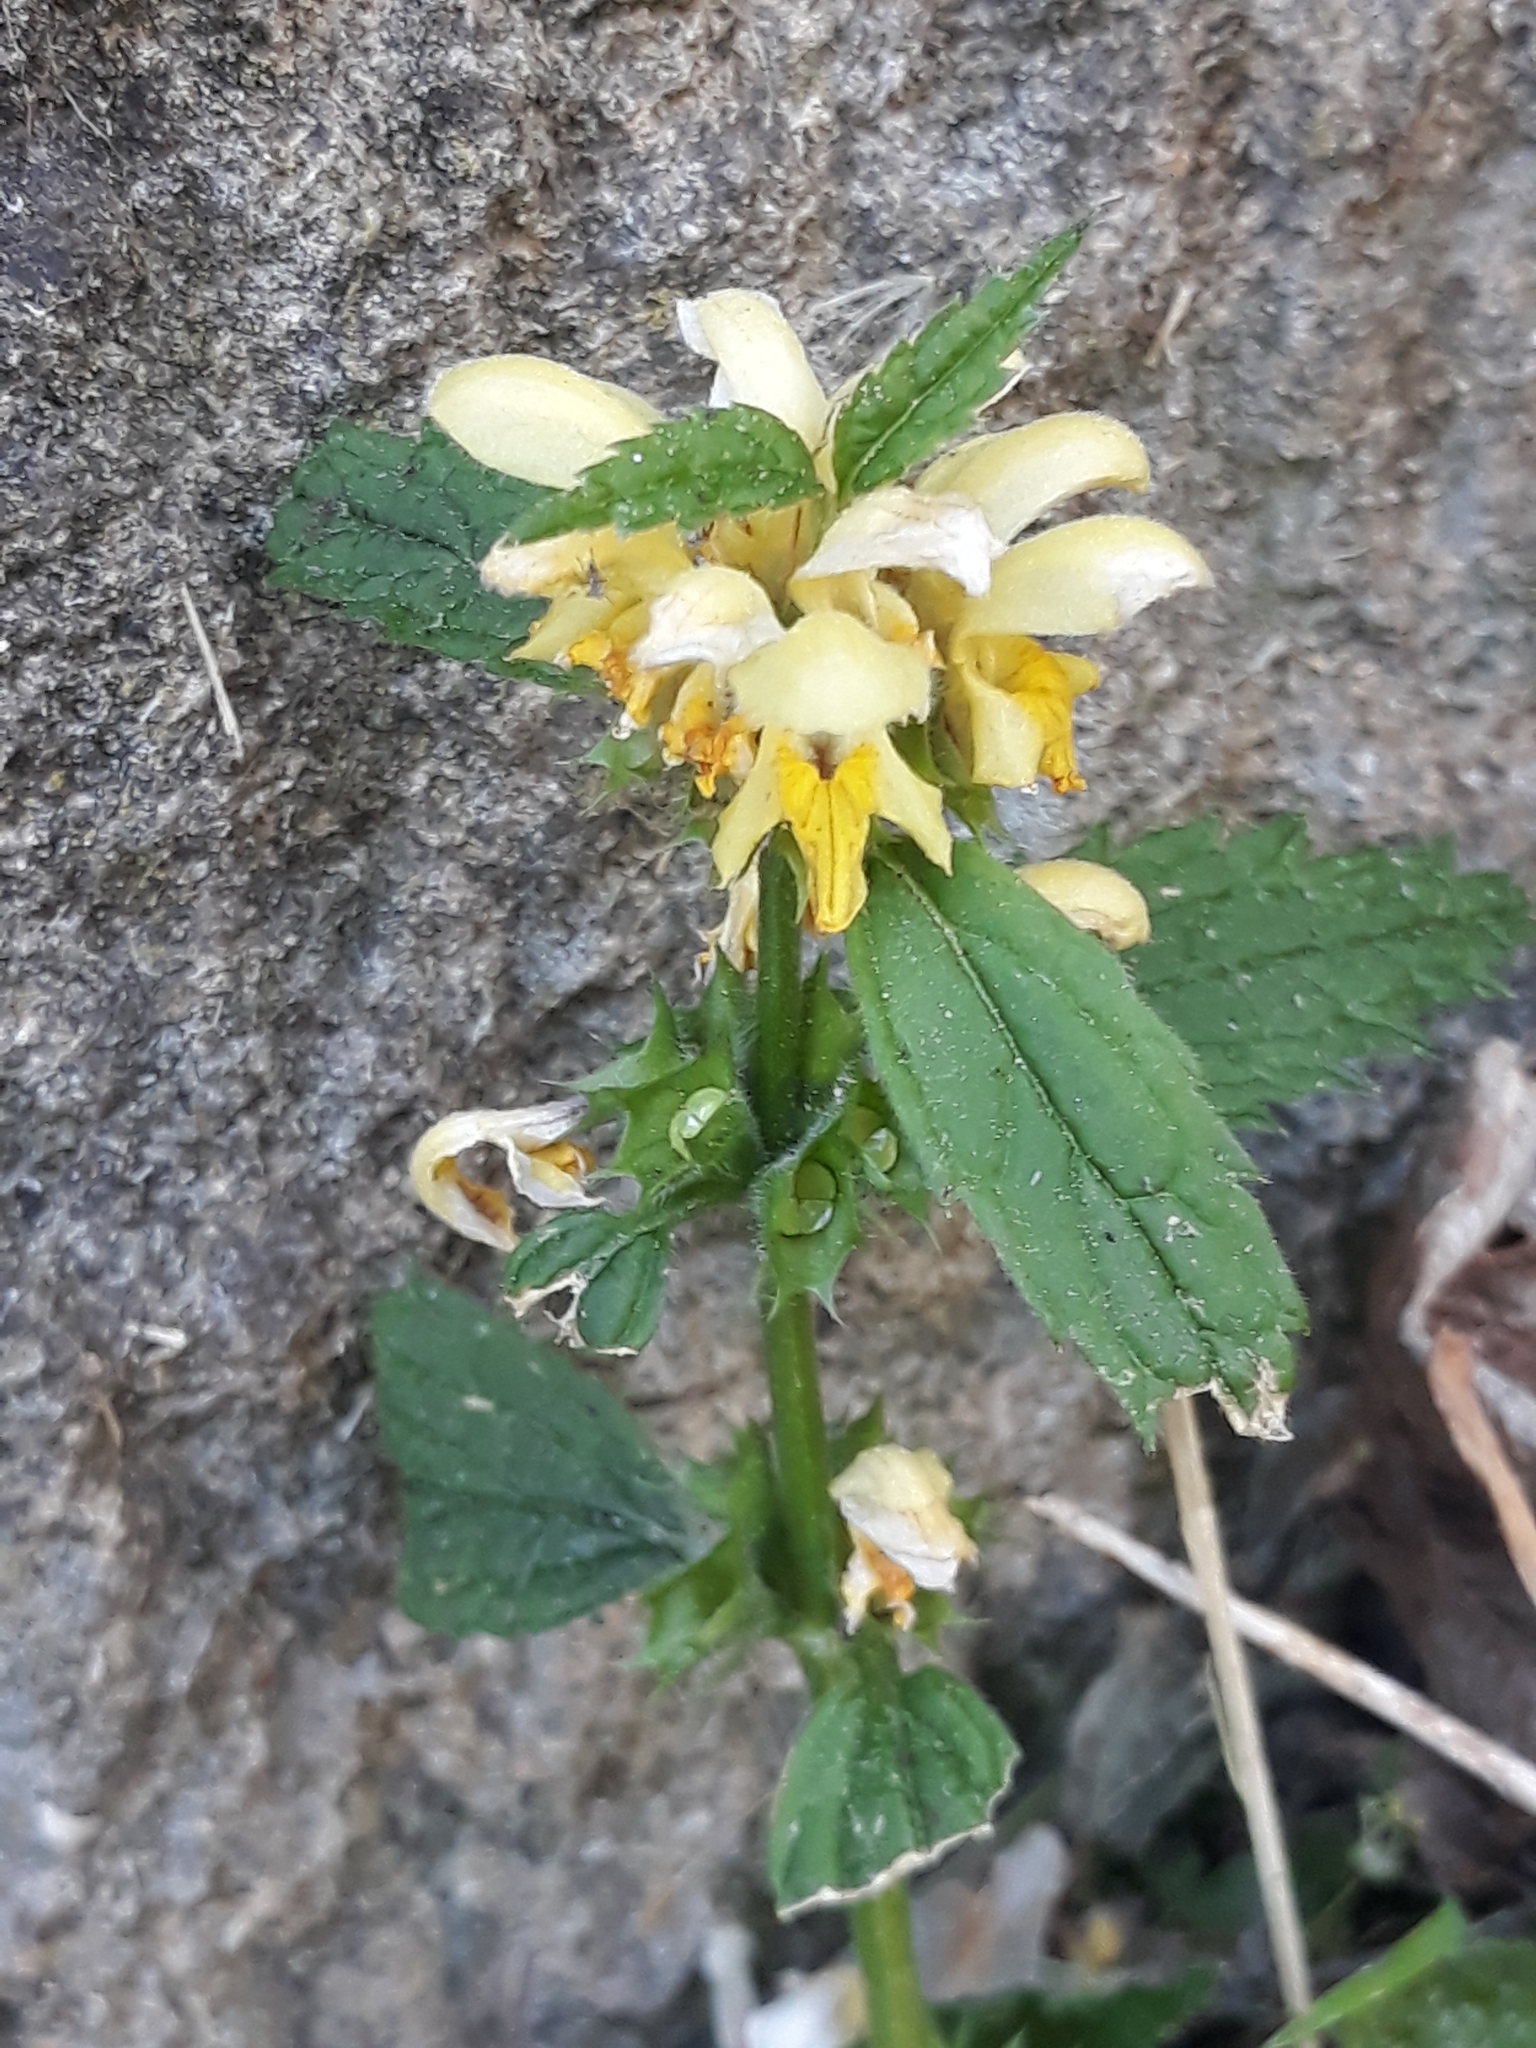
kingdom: Plantae
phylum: Tracheophyta
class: Magnoliopsida
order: Lamiales
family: Lamiaceae
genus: Lamium
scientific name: Lamium galeobdolon
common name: Yellow archangel
